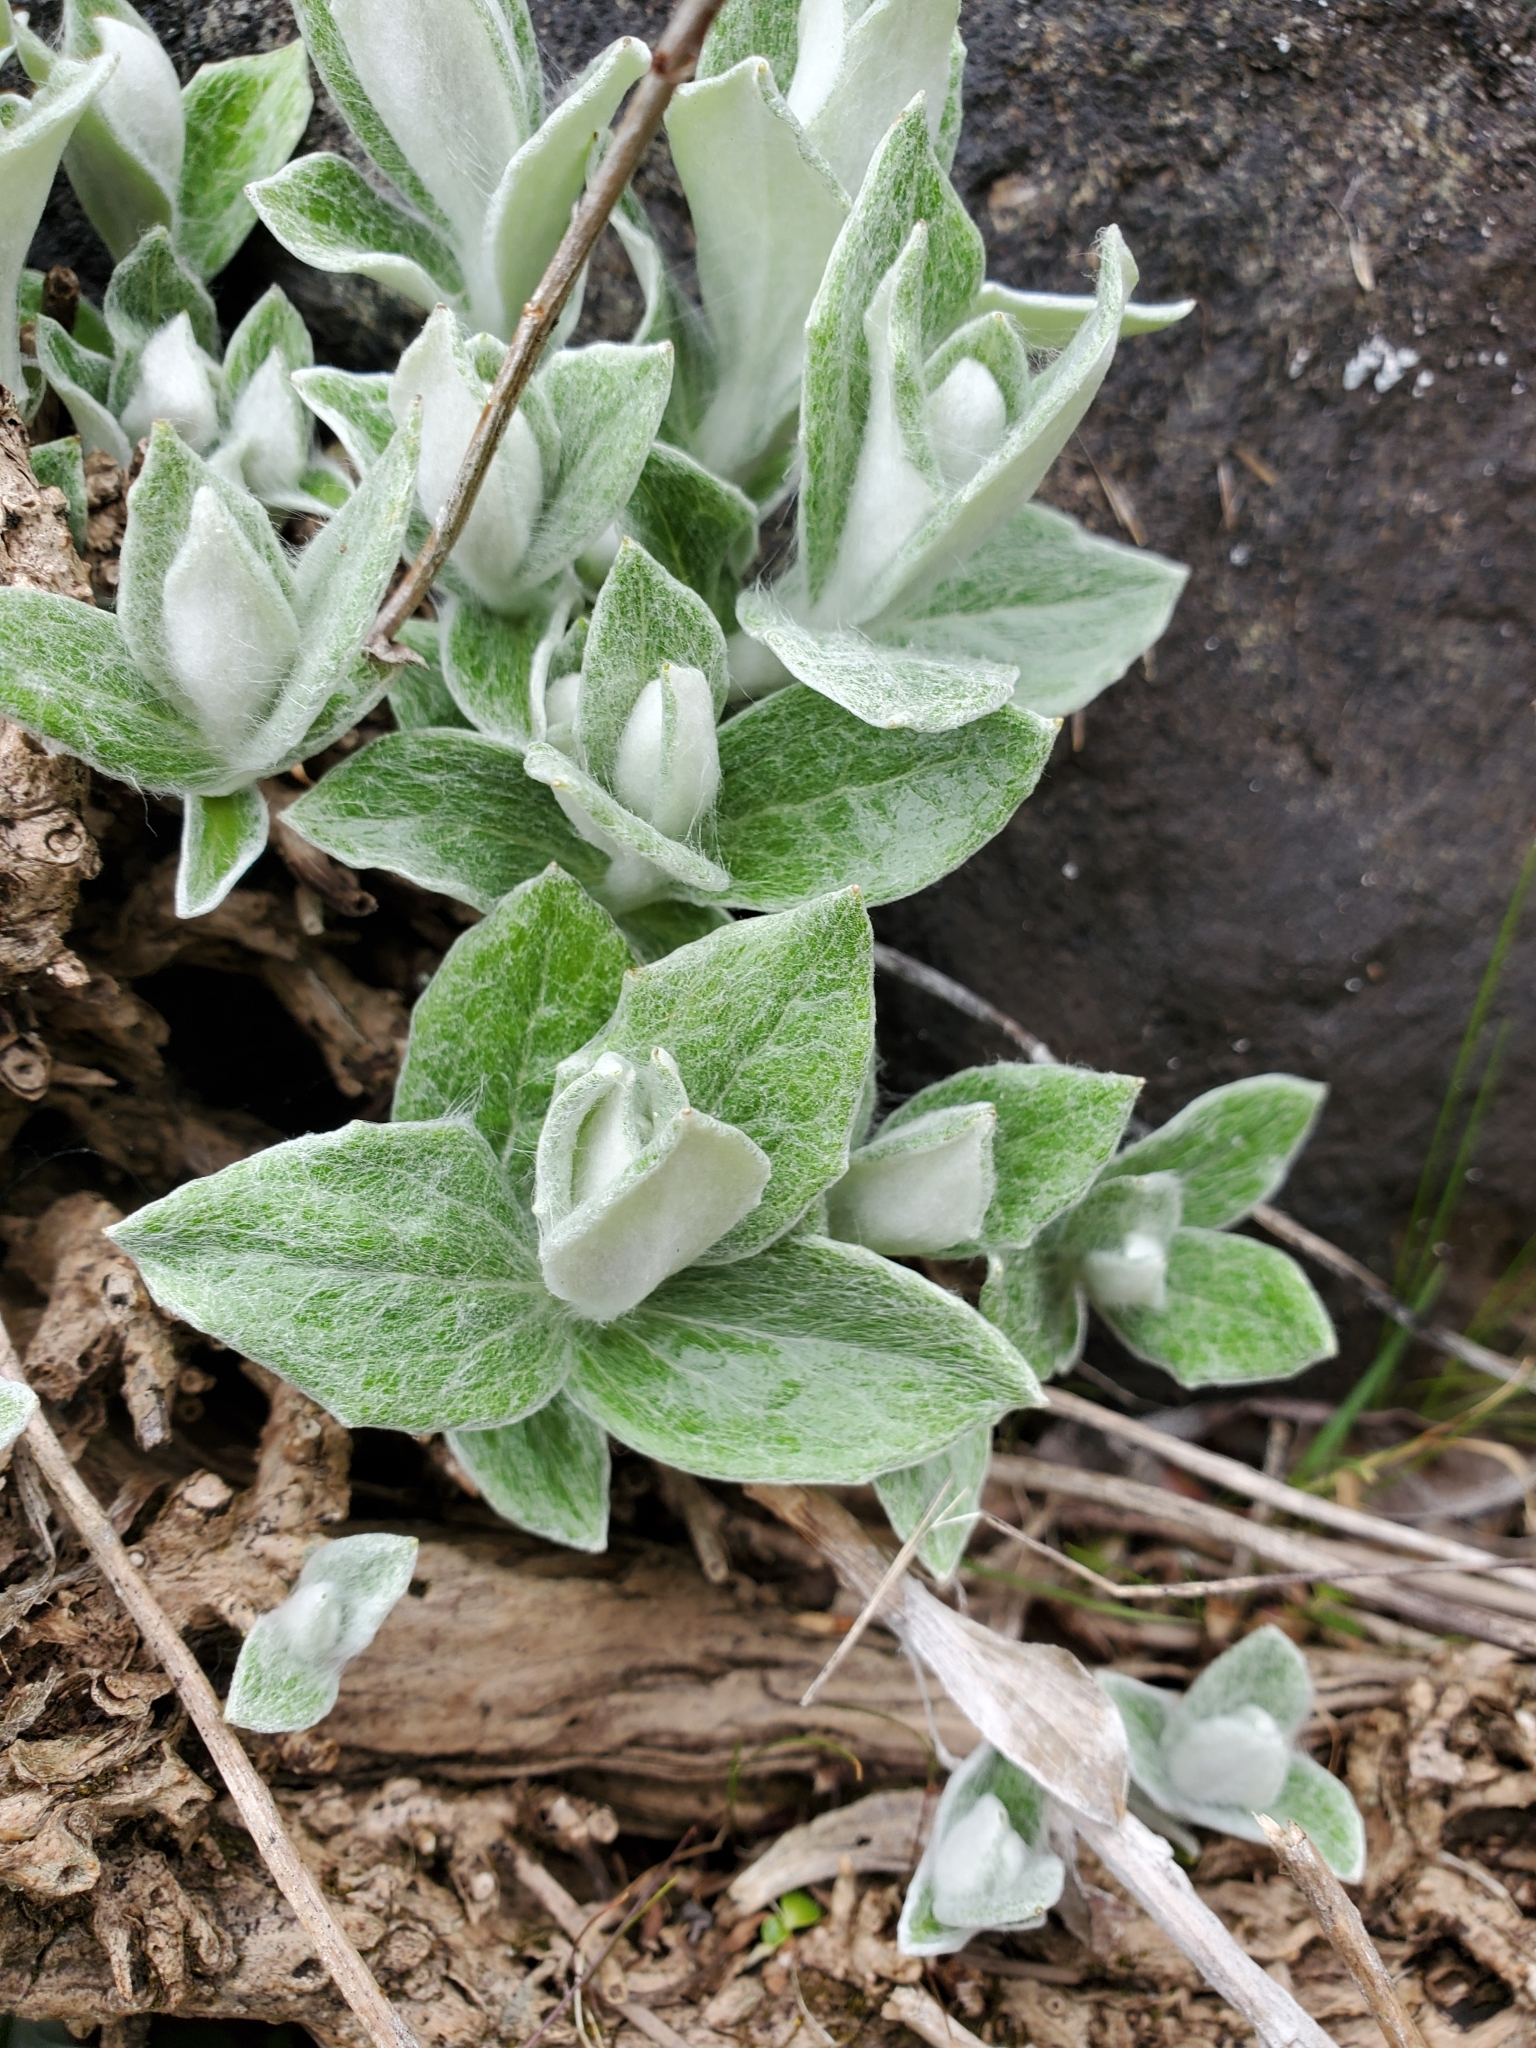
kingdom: Plantae
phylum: Tracheophyta
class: Magnoliopsida
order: Asterales
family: Asteraceae
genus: Luina
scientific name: Luina hypoleuca
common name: Little-leaved luina
